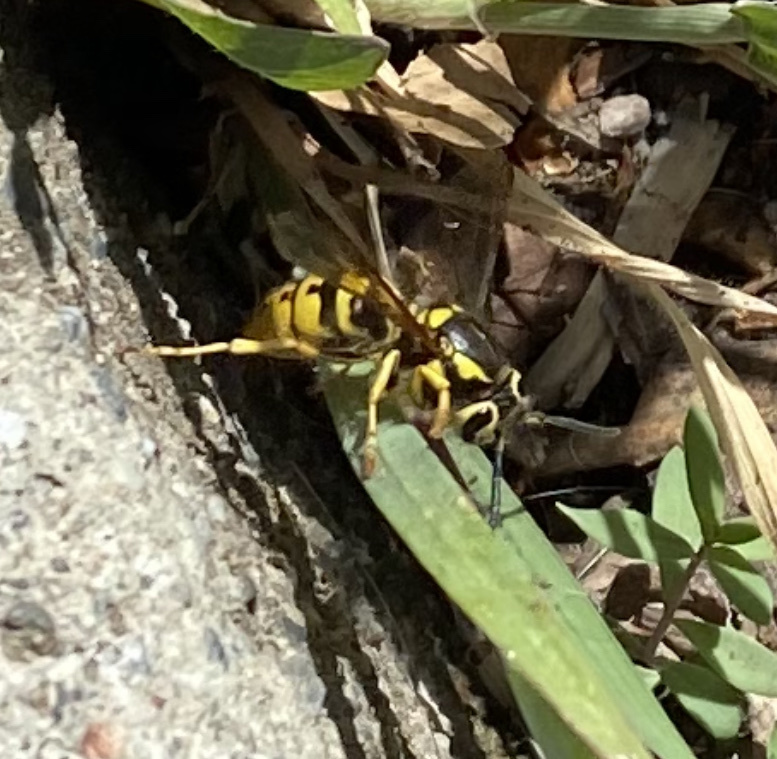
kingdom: Animalia
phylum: Arthropoda
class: Insecta
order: Hymenoptera
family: Vespidae
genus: Vespula
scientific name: Vespula pensylvanica
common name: Western yellowjacket
